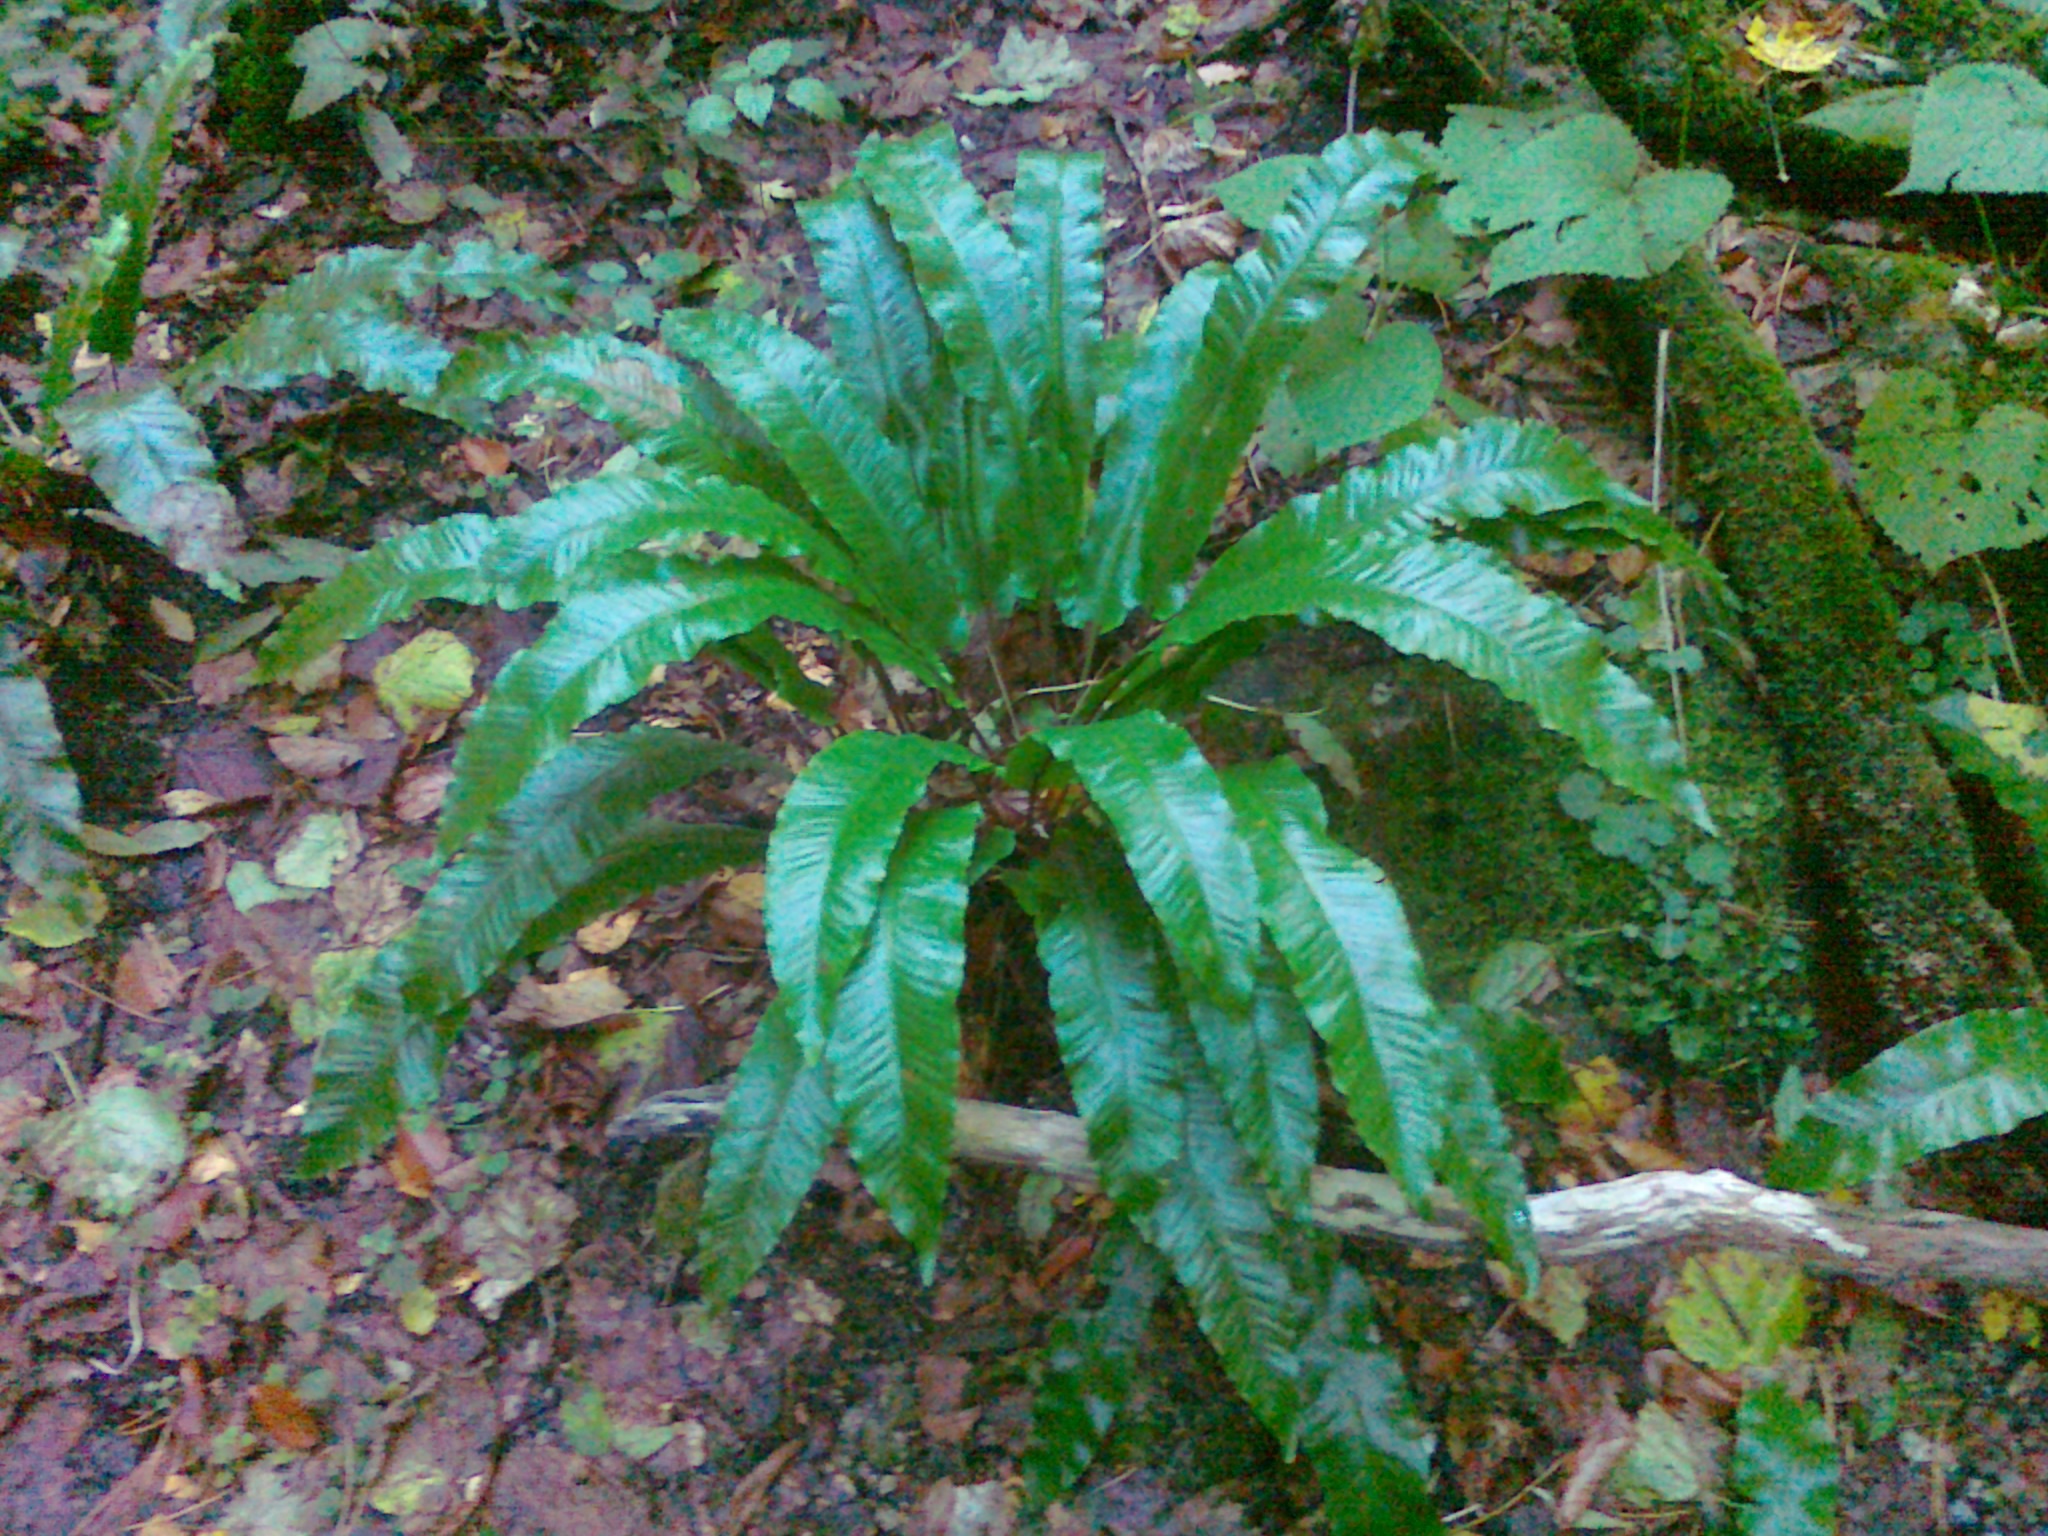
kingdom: Plantae
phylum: Tracheophyta
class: Polypodiopsida
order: Polypodiales
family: Aspleniaceae
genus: Asplenium
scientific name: Asplenium scolopendrium
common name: Hart's-tongue fern
